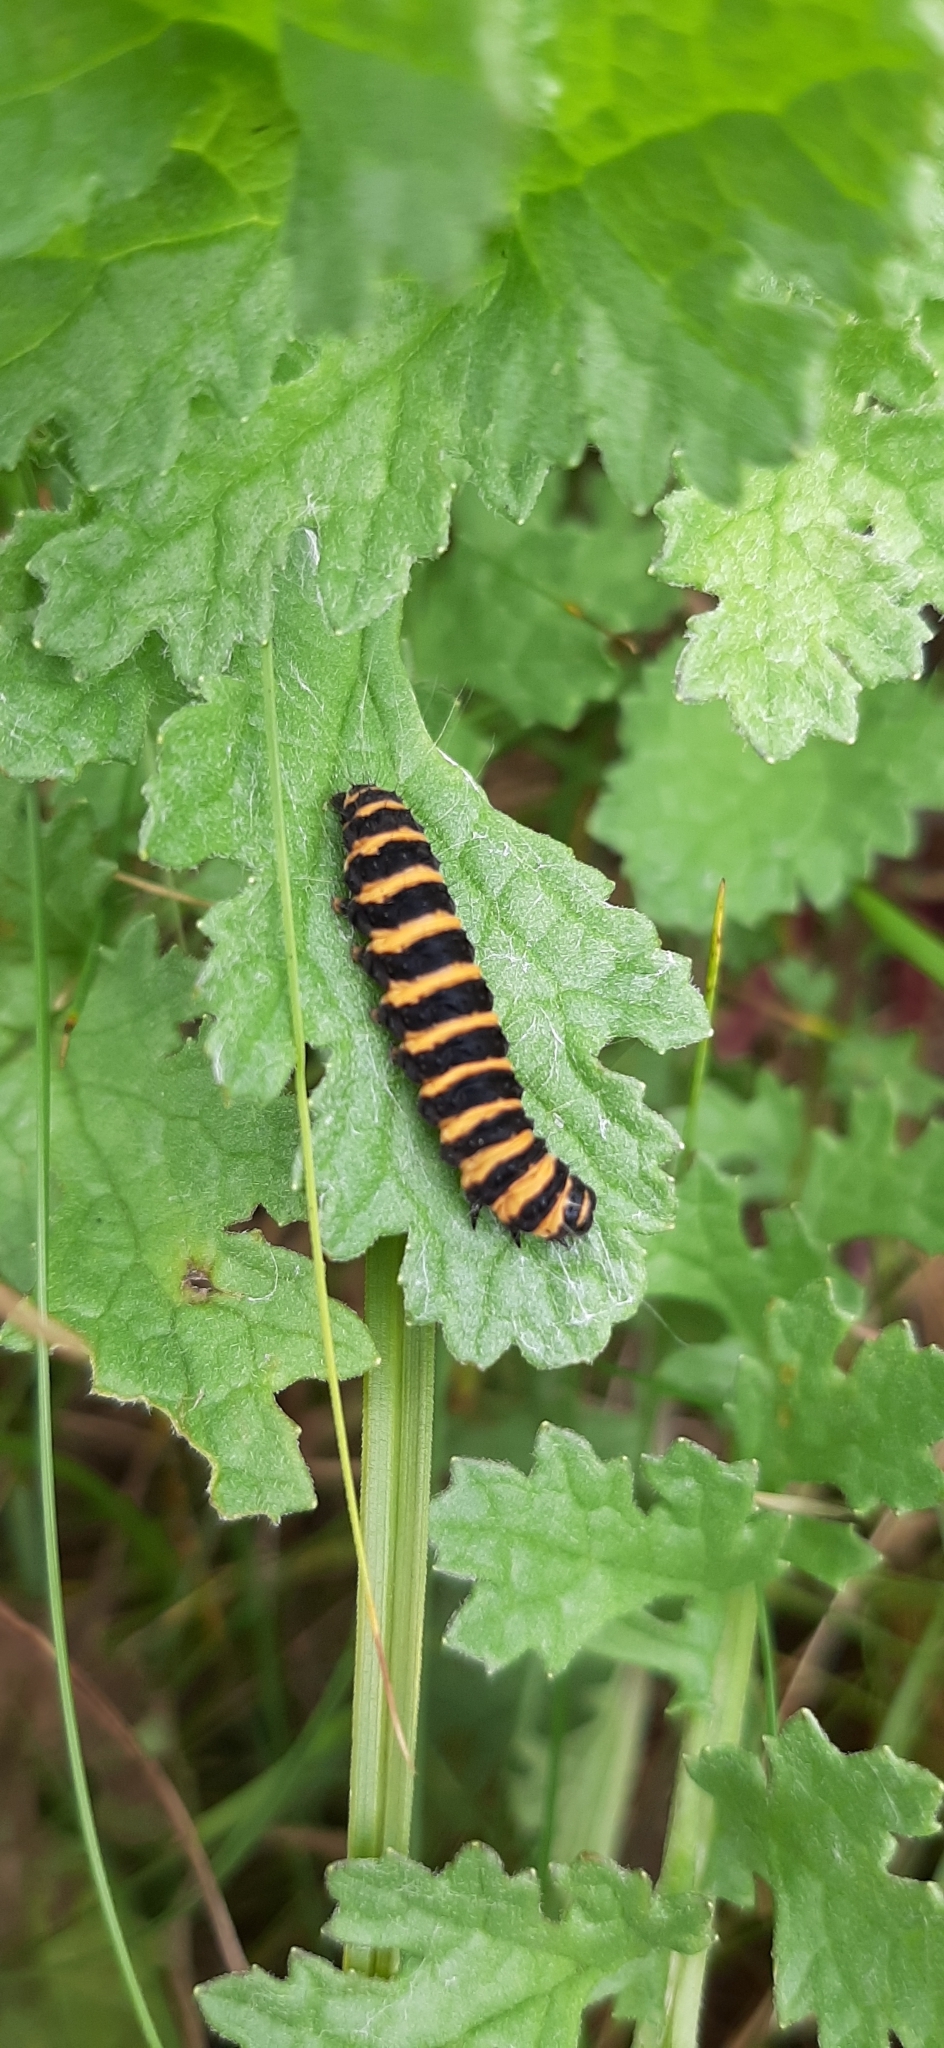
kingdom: Animalia
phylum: Arthropoda
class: Insecta
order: Lepidoptera
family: Erebidae
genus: Tyria
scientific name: Tyria jacobaeae
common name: Cinnabar
